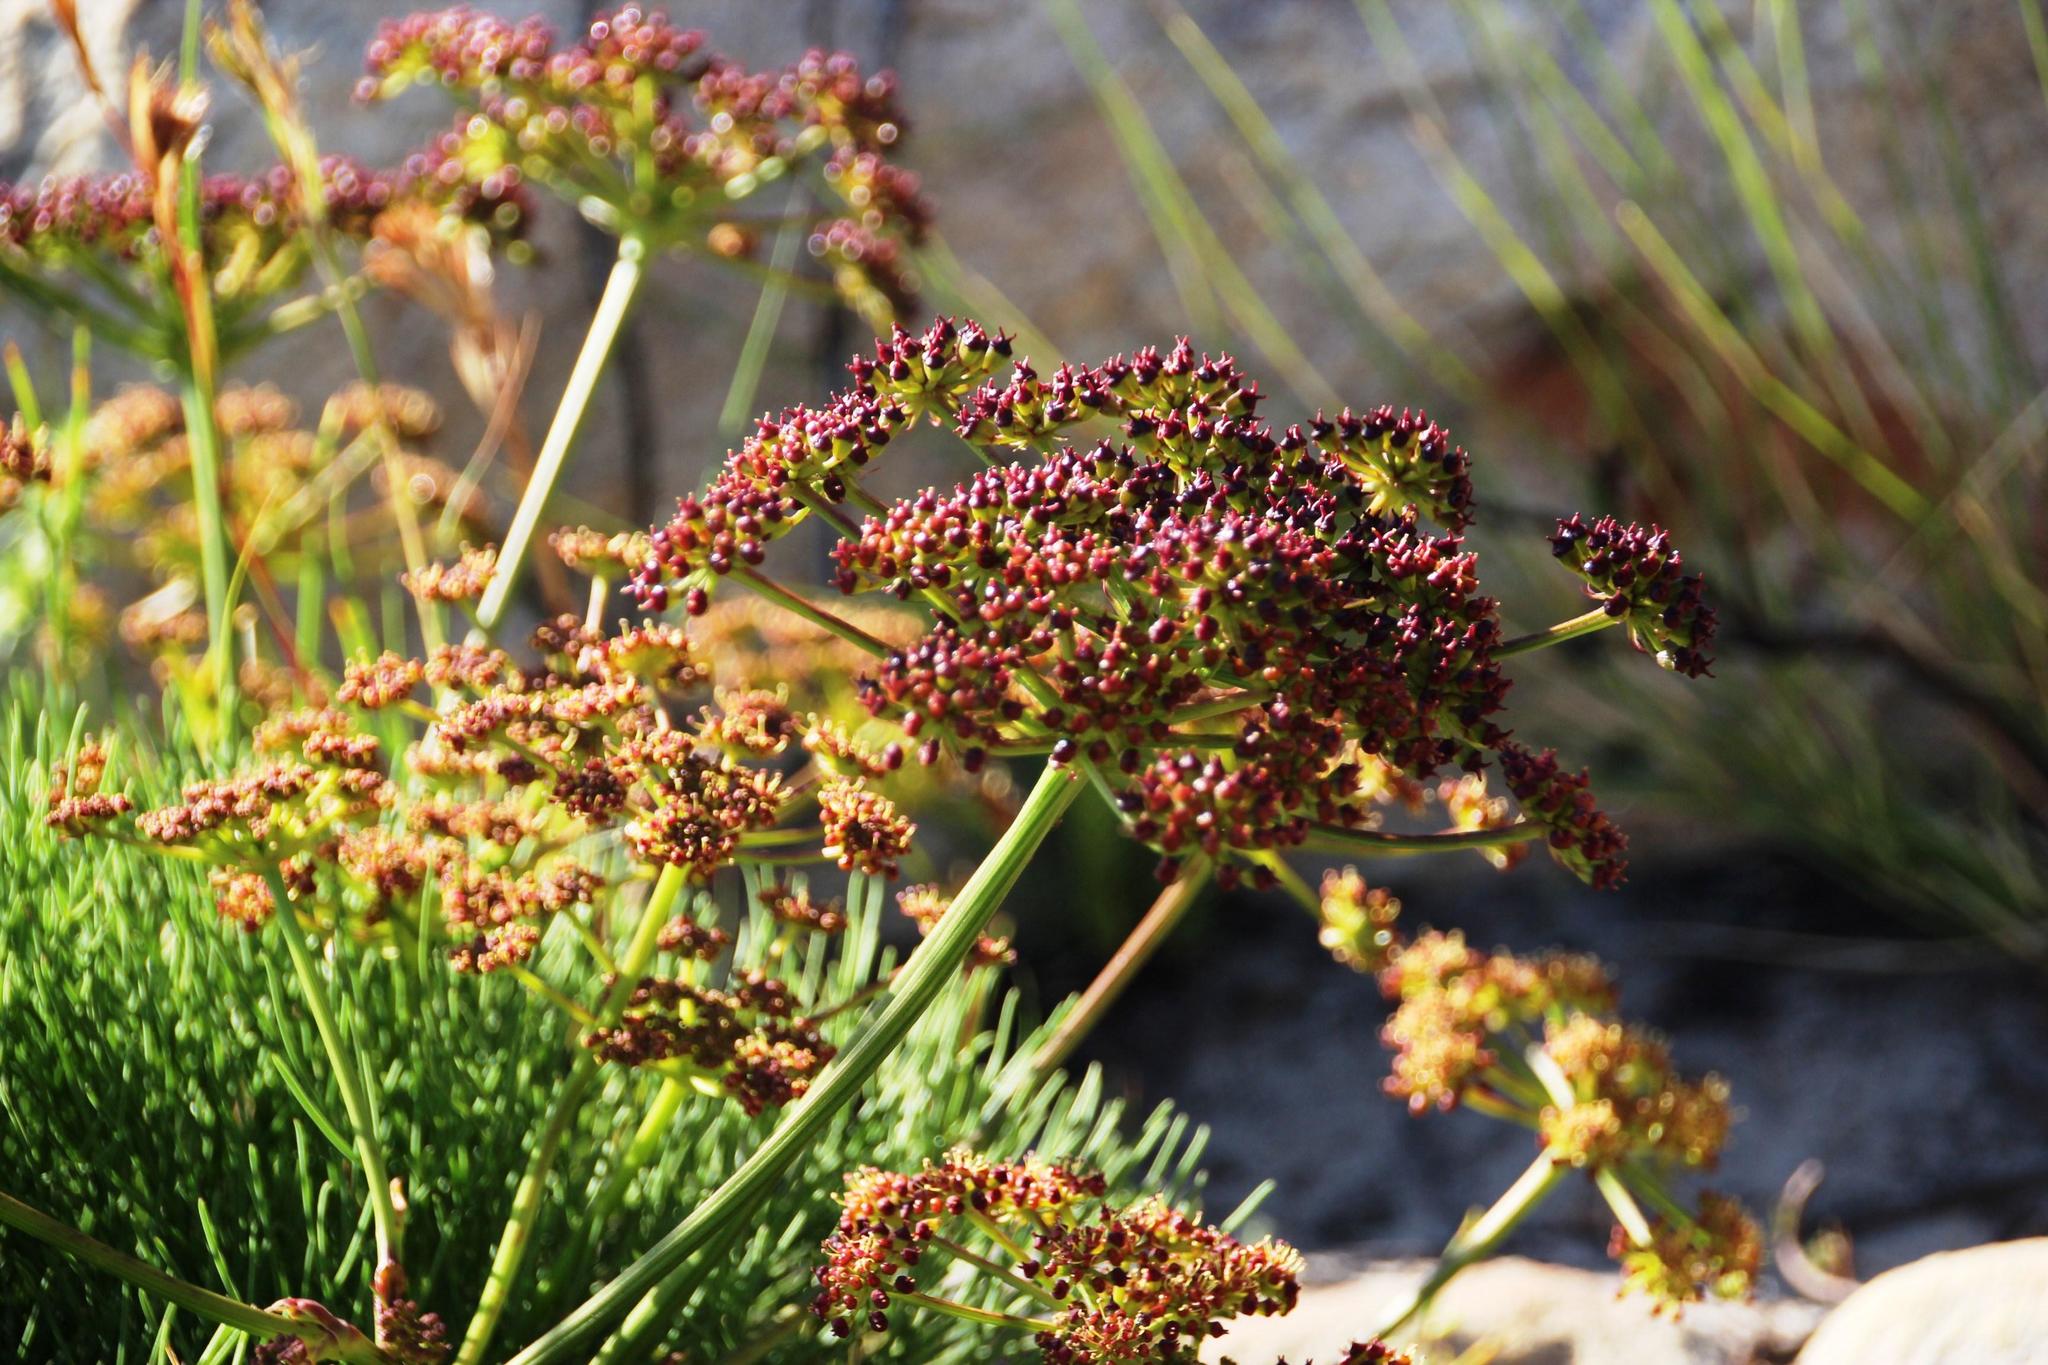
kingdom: Plantae
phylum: Tracheophyta
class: Magnoliopsida
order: Apiales
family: Apiaceae
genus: Nanobubon
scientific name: Nanobubon strictum
